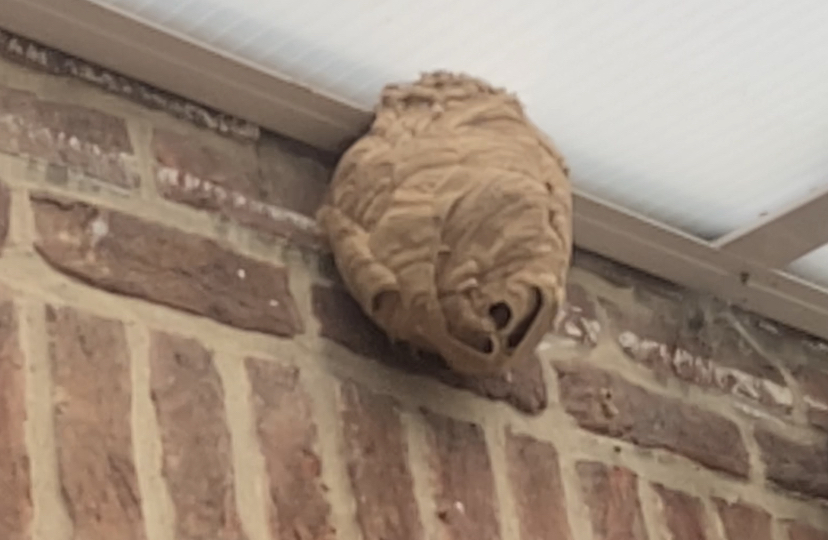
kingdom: Animalia
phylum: Arthropoda
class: Insecta
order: Hymenoptera
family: Vespidae
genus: Vespa
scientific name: Vespa velutina
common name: Asian hornet
